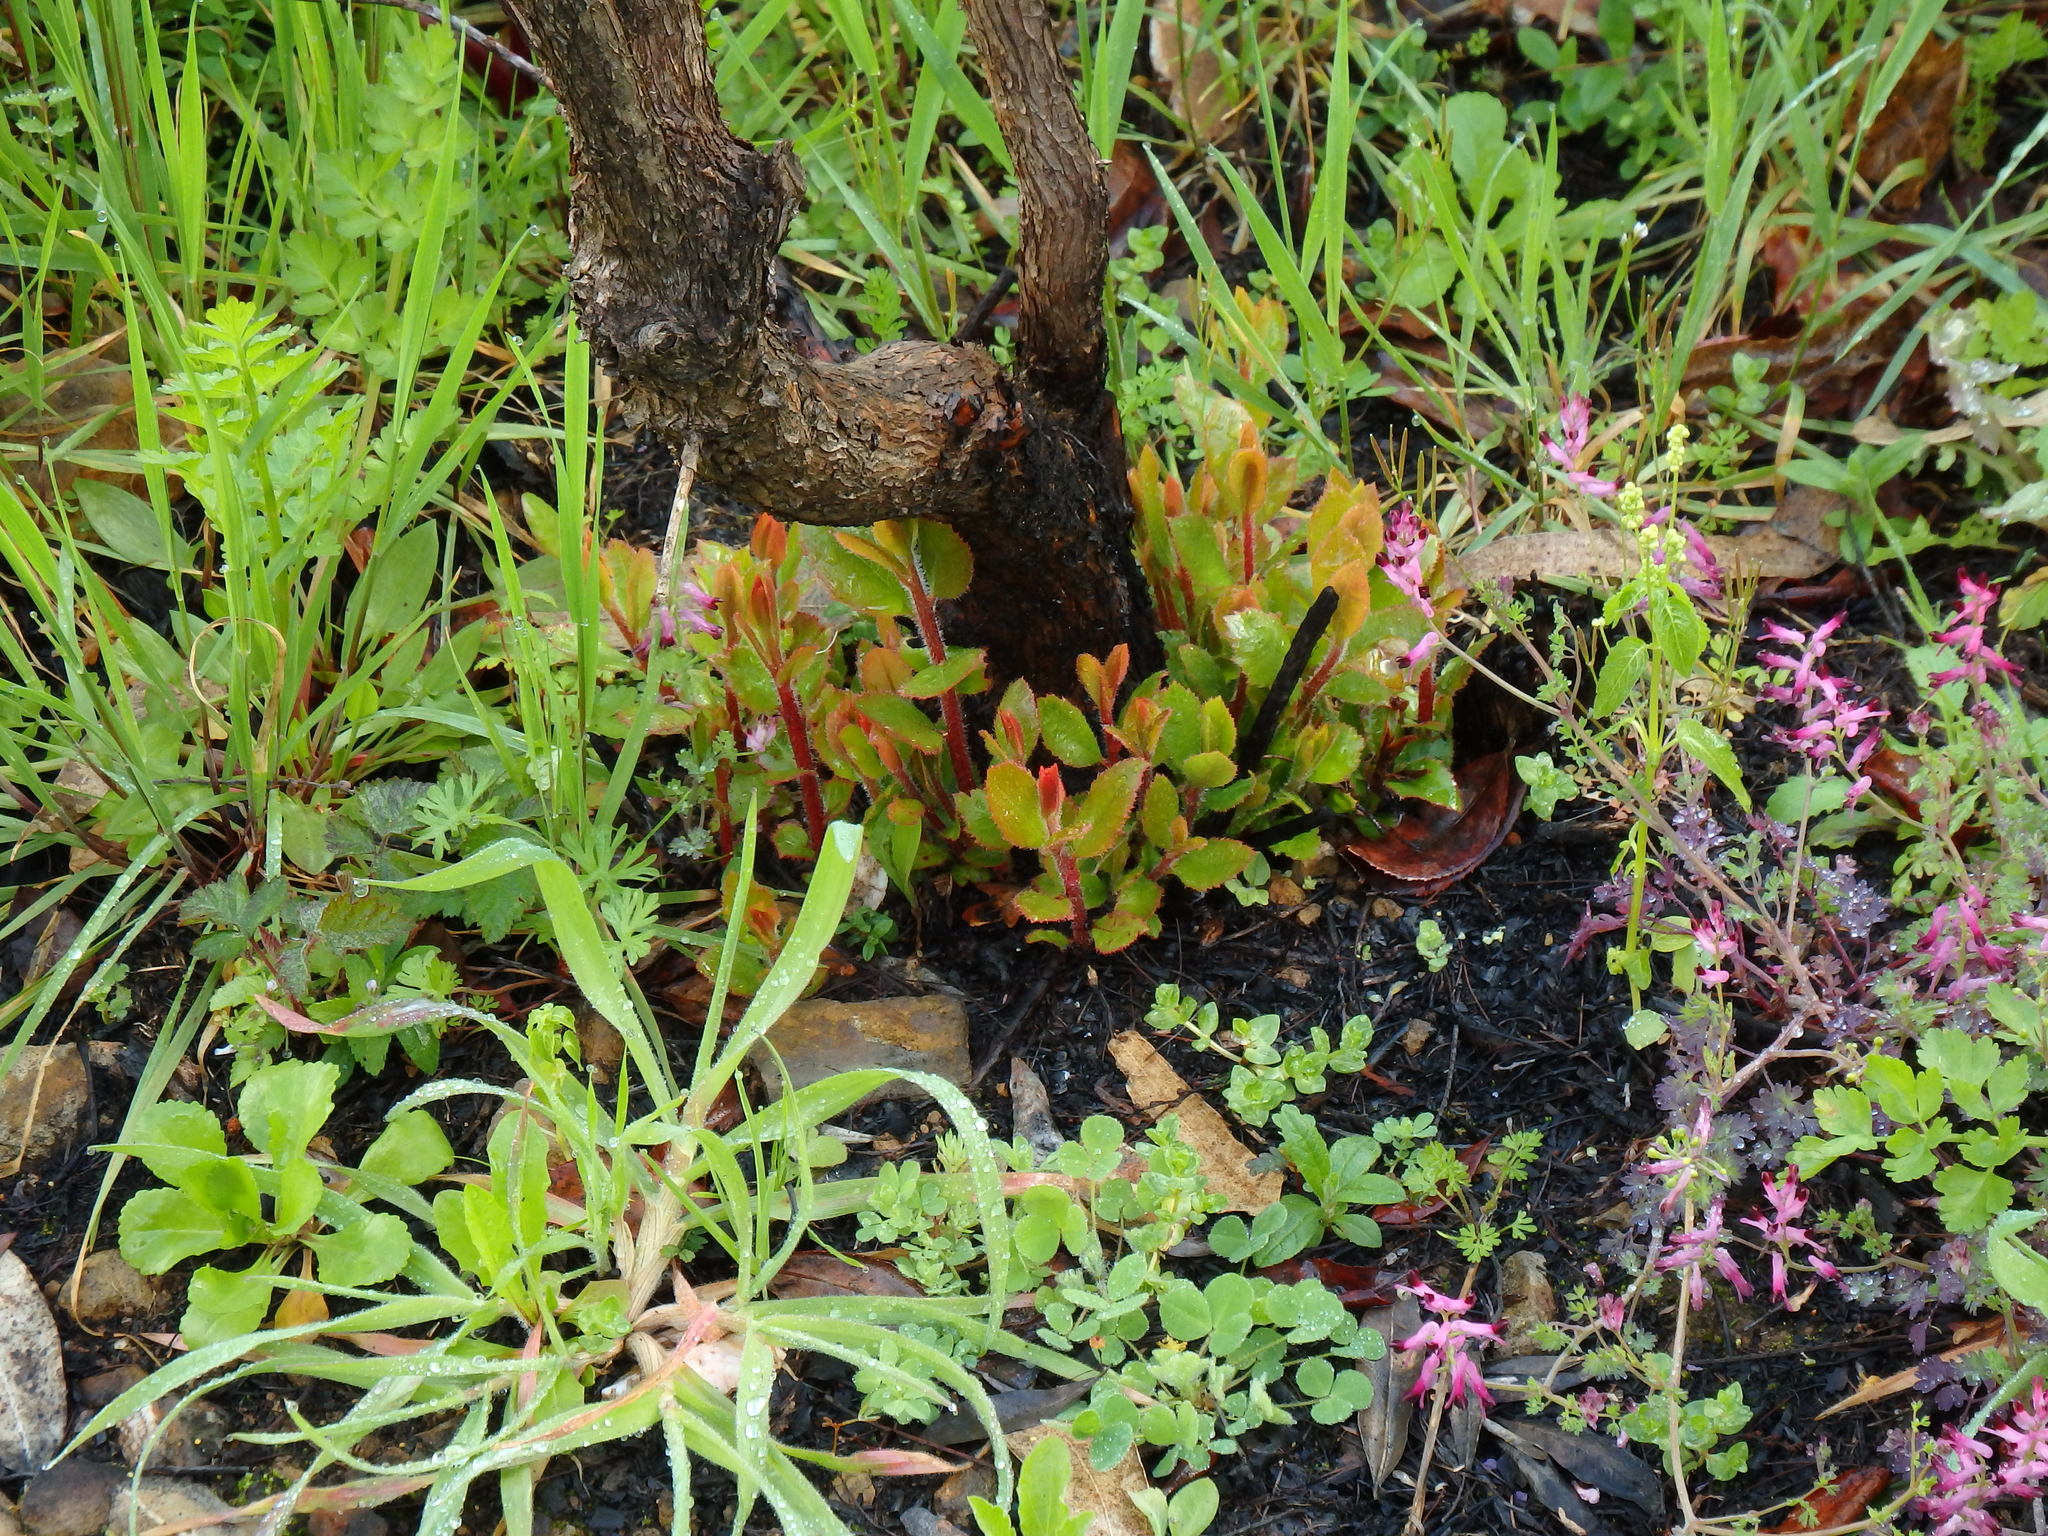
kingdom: Plantae
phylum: Tracheophyta
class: Magnoliopsida
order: Ericales
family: Ericaceae
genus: Arbutus
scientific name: Arbutus unedo
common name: Strawberry-tree
